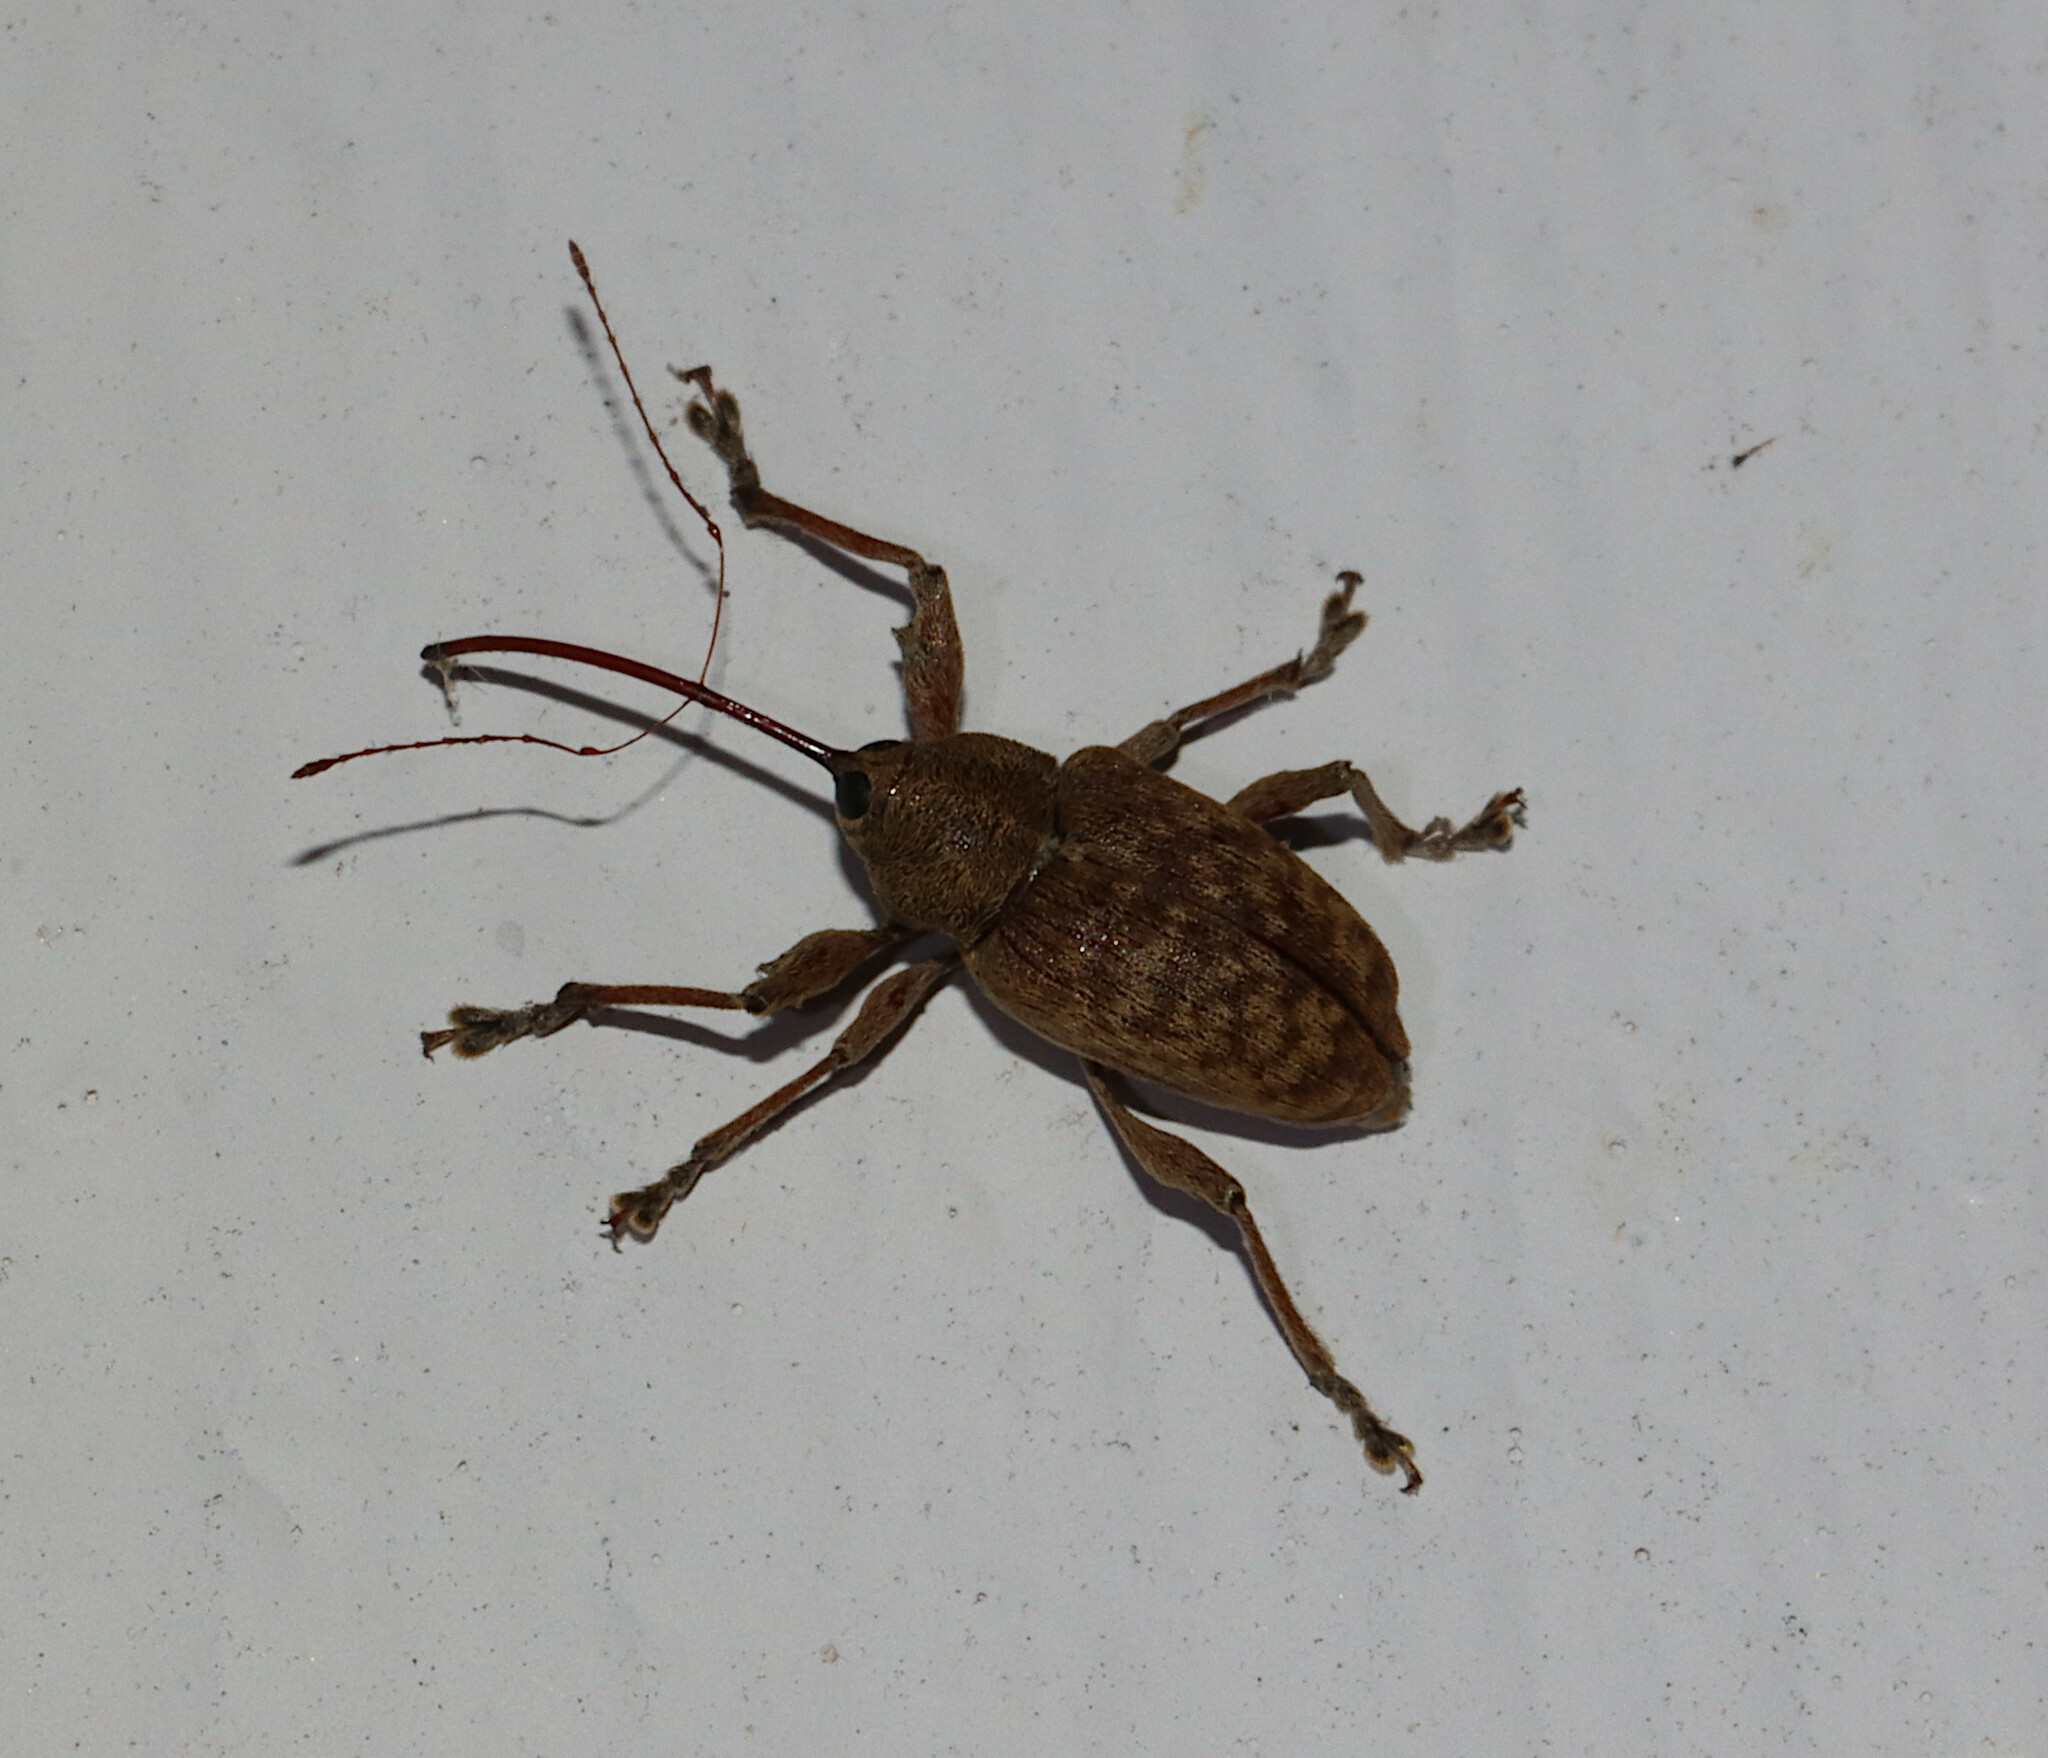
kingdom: Animalia
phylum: Arthropoda
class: Insecta
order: Coleoptera
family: Curculionidae
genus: Curculio
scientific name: Curculio
